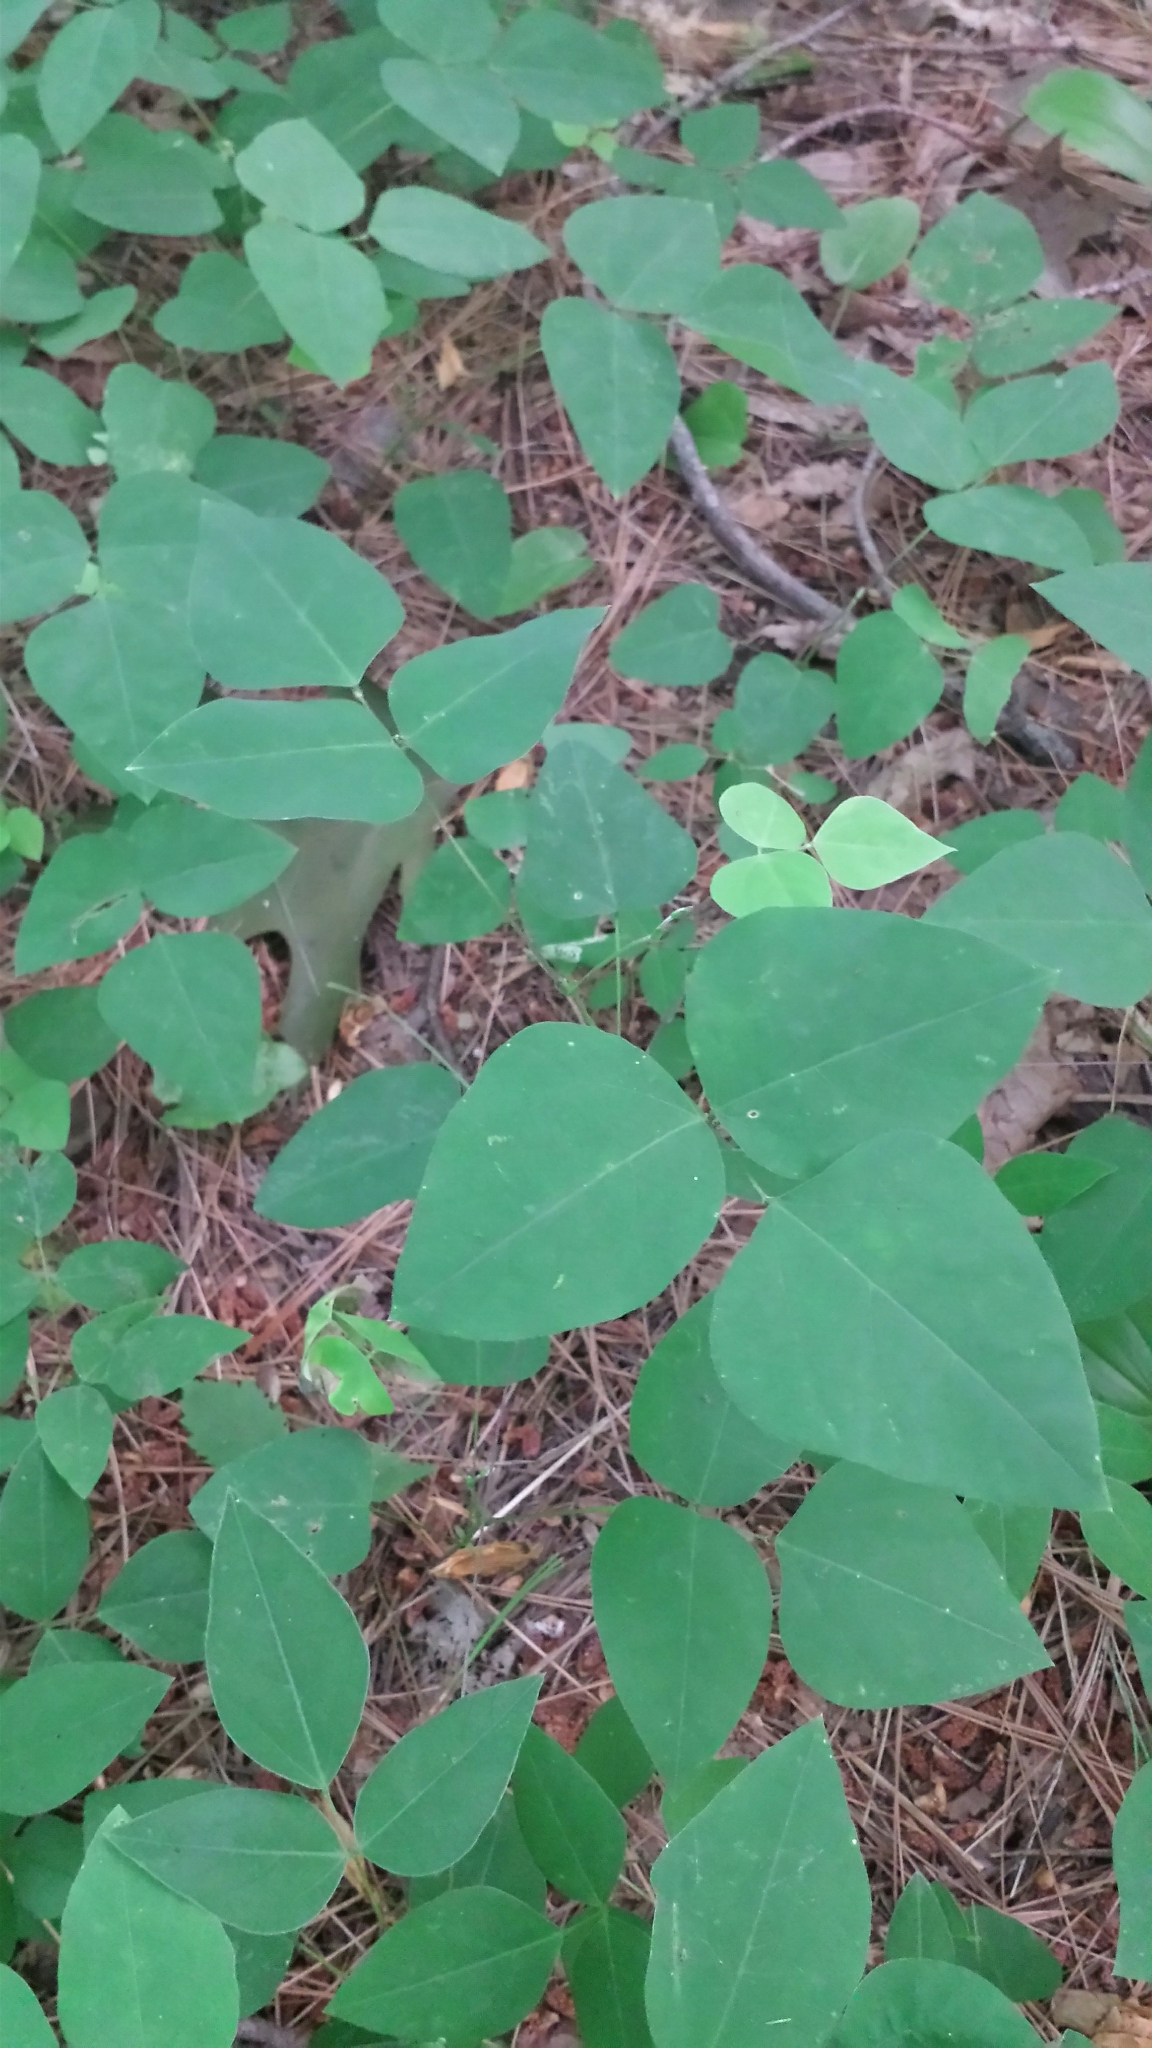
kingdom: Plantae
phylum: Tracheophyta
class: Magnoliopsida
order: Fabales
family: Fabaceae
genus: Amphicarpaea
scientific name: Amphicarpaea bracteata
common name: American hog peanut
